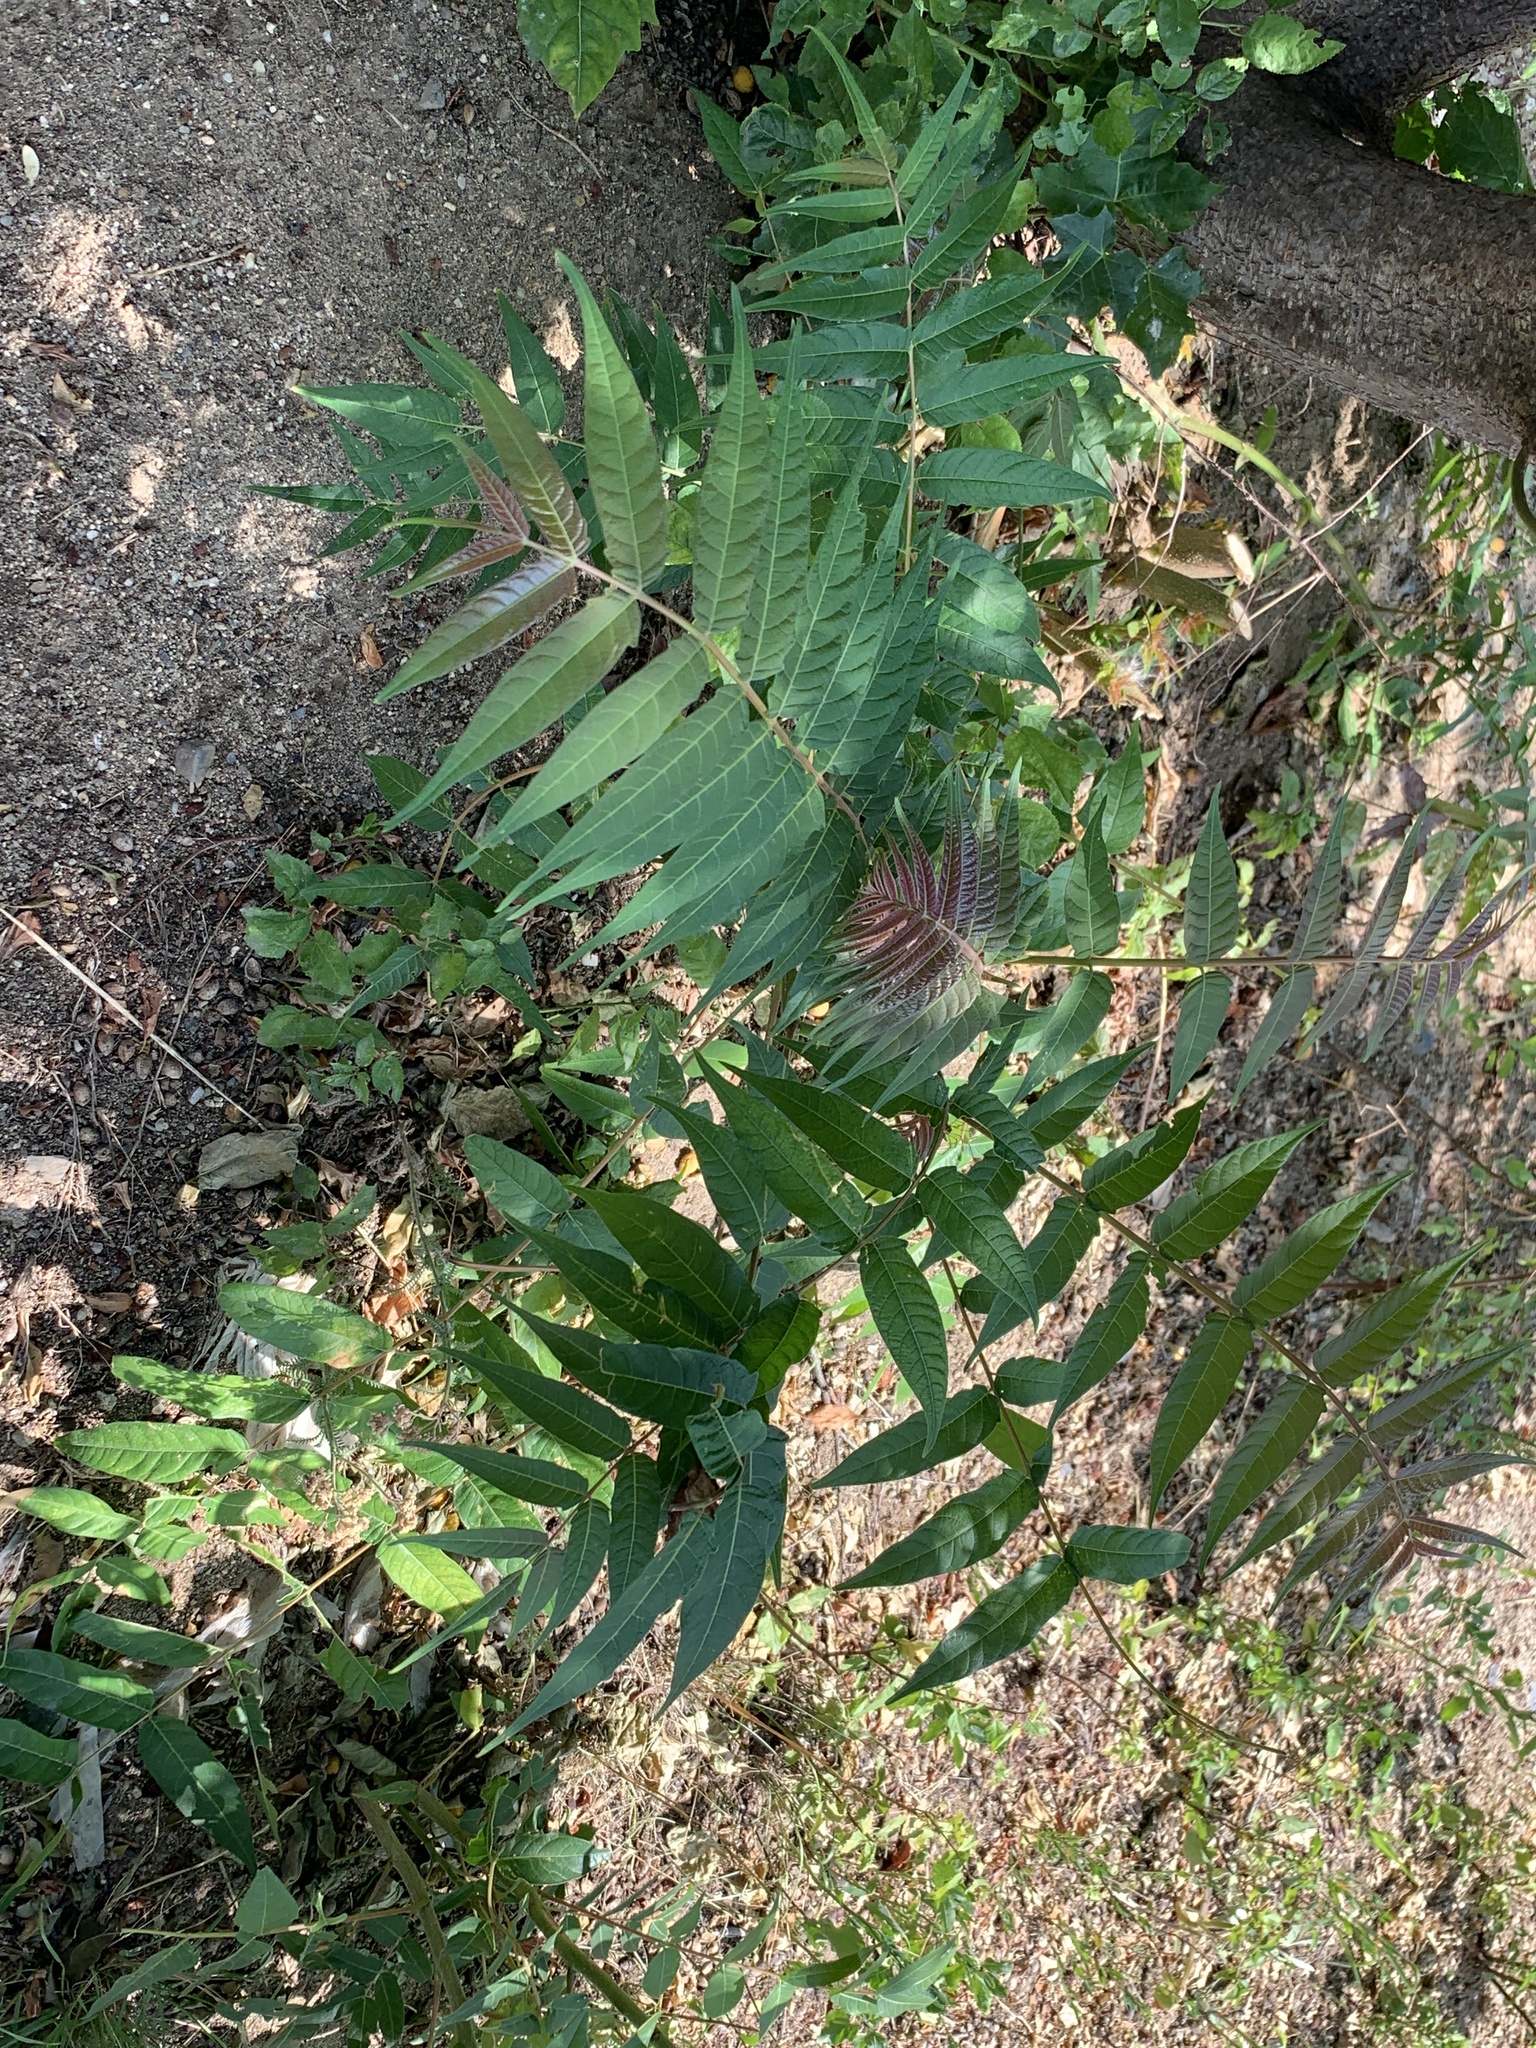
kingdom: Plantae
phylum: Tracheophyta
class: Magnoliopsida
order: Sapindales
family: Simaroubaceae
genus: Ailanthus
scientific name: Ailanthus altissima
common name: Tree-of-heaven
